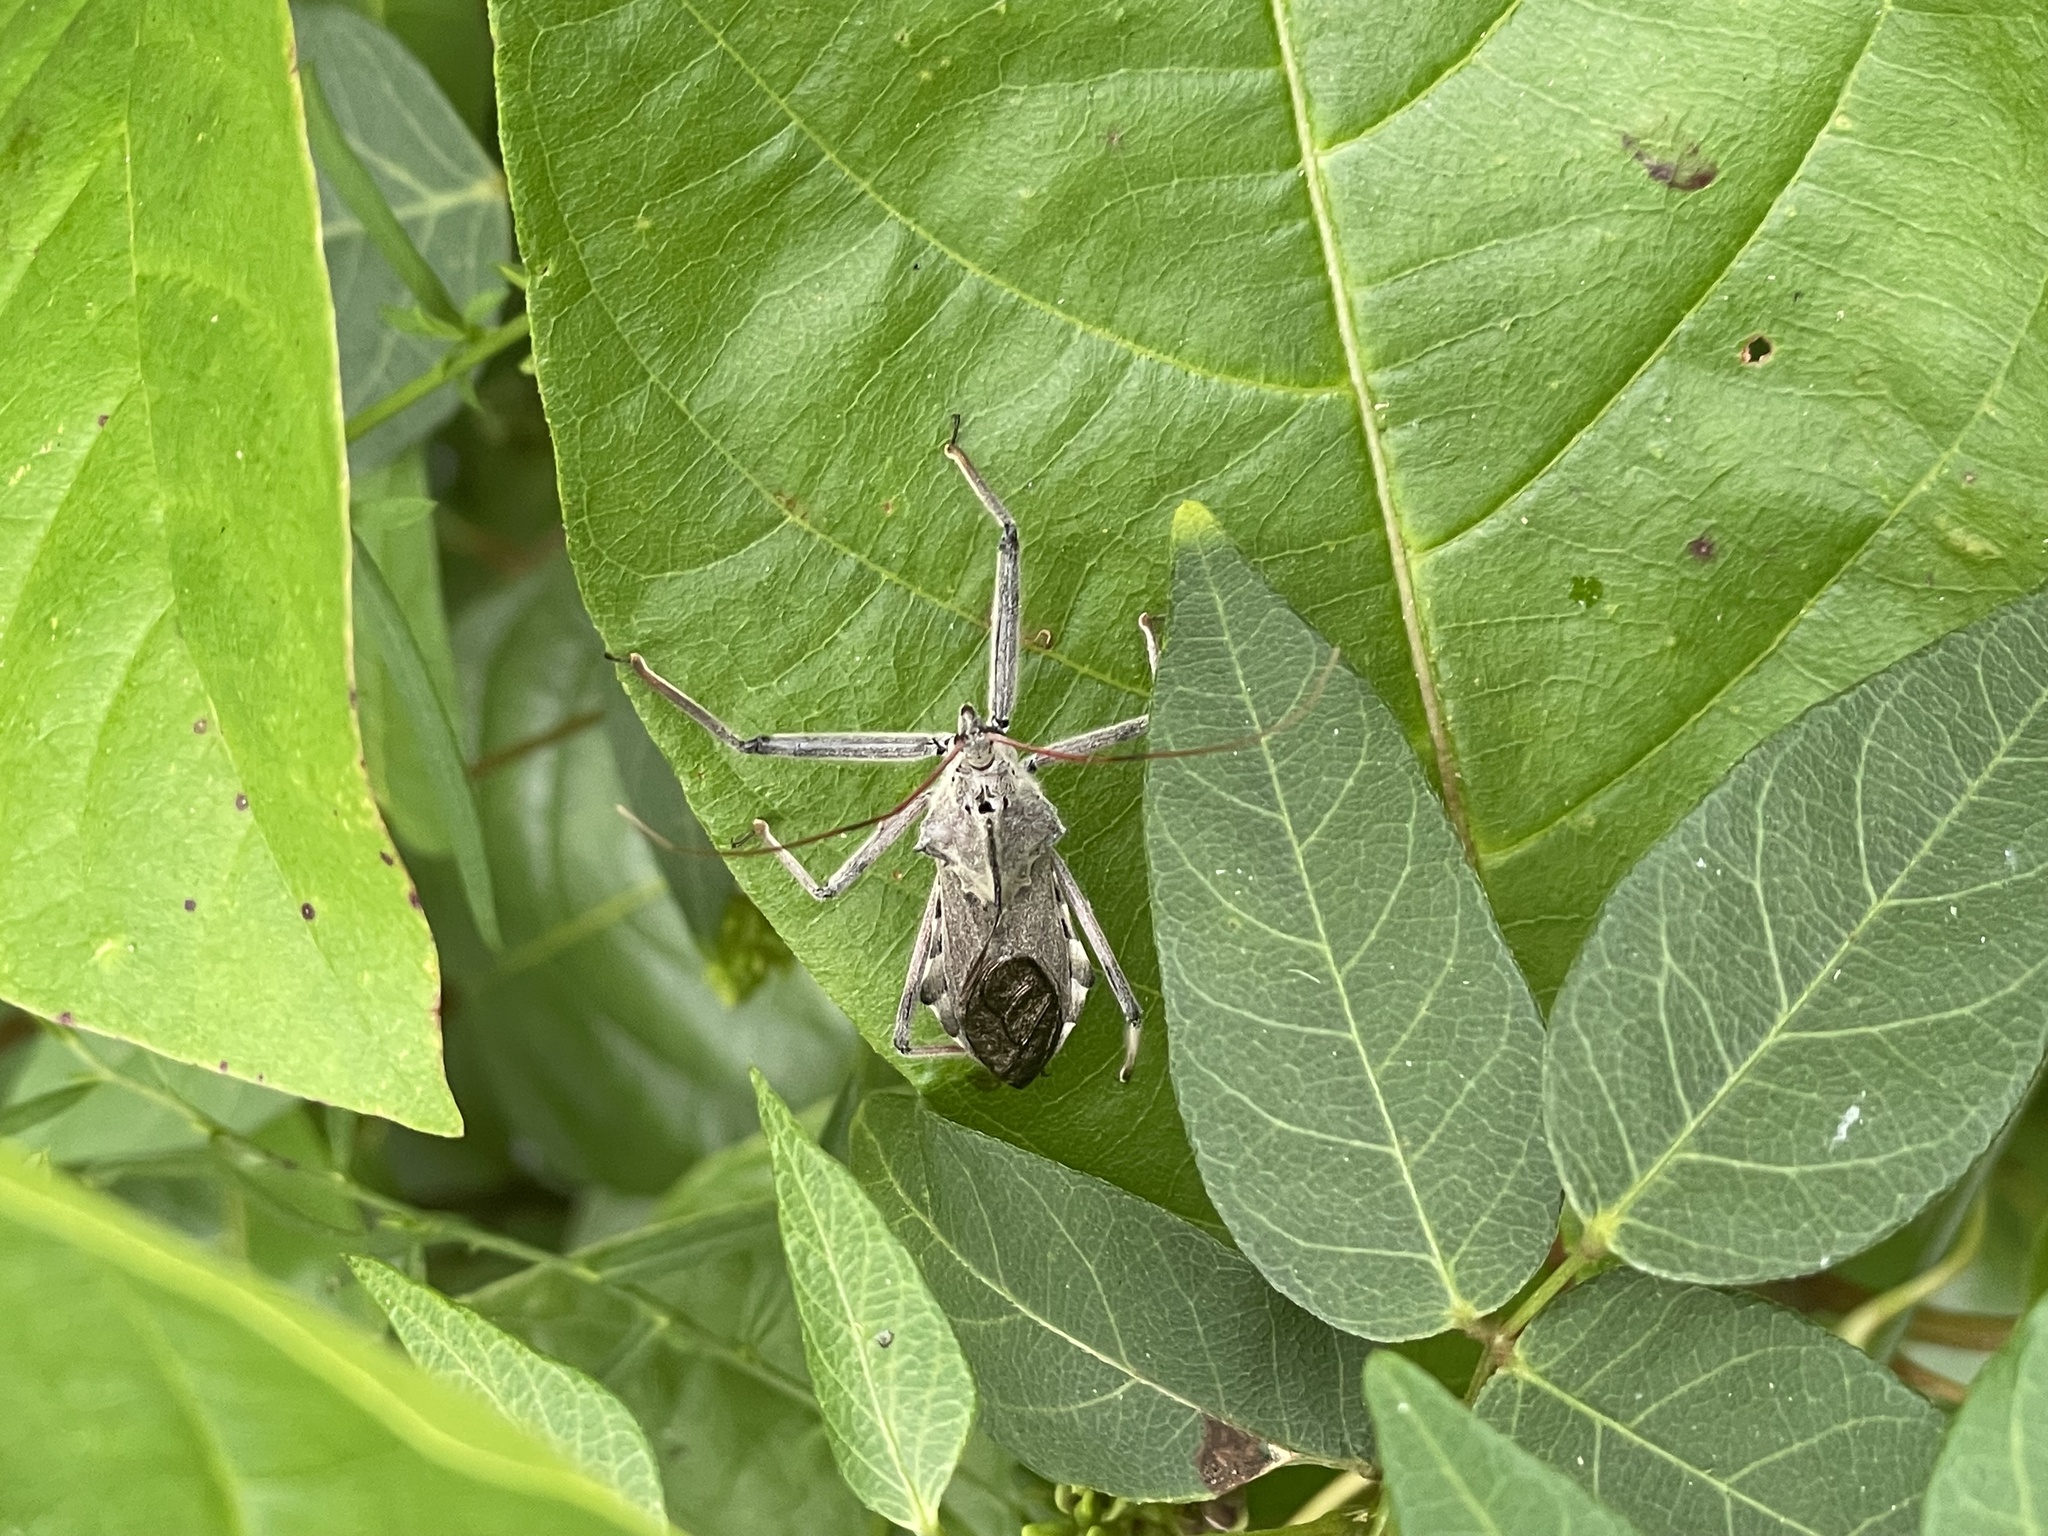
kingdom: Animalia
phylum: Arthropoda
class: Insecta
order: Hemiptera
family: Reduviidae
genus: Arilus
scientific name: Arilus cristatus
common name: North american wheel bug
